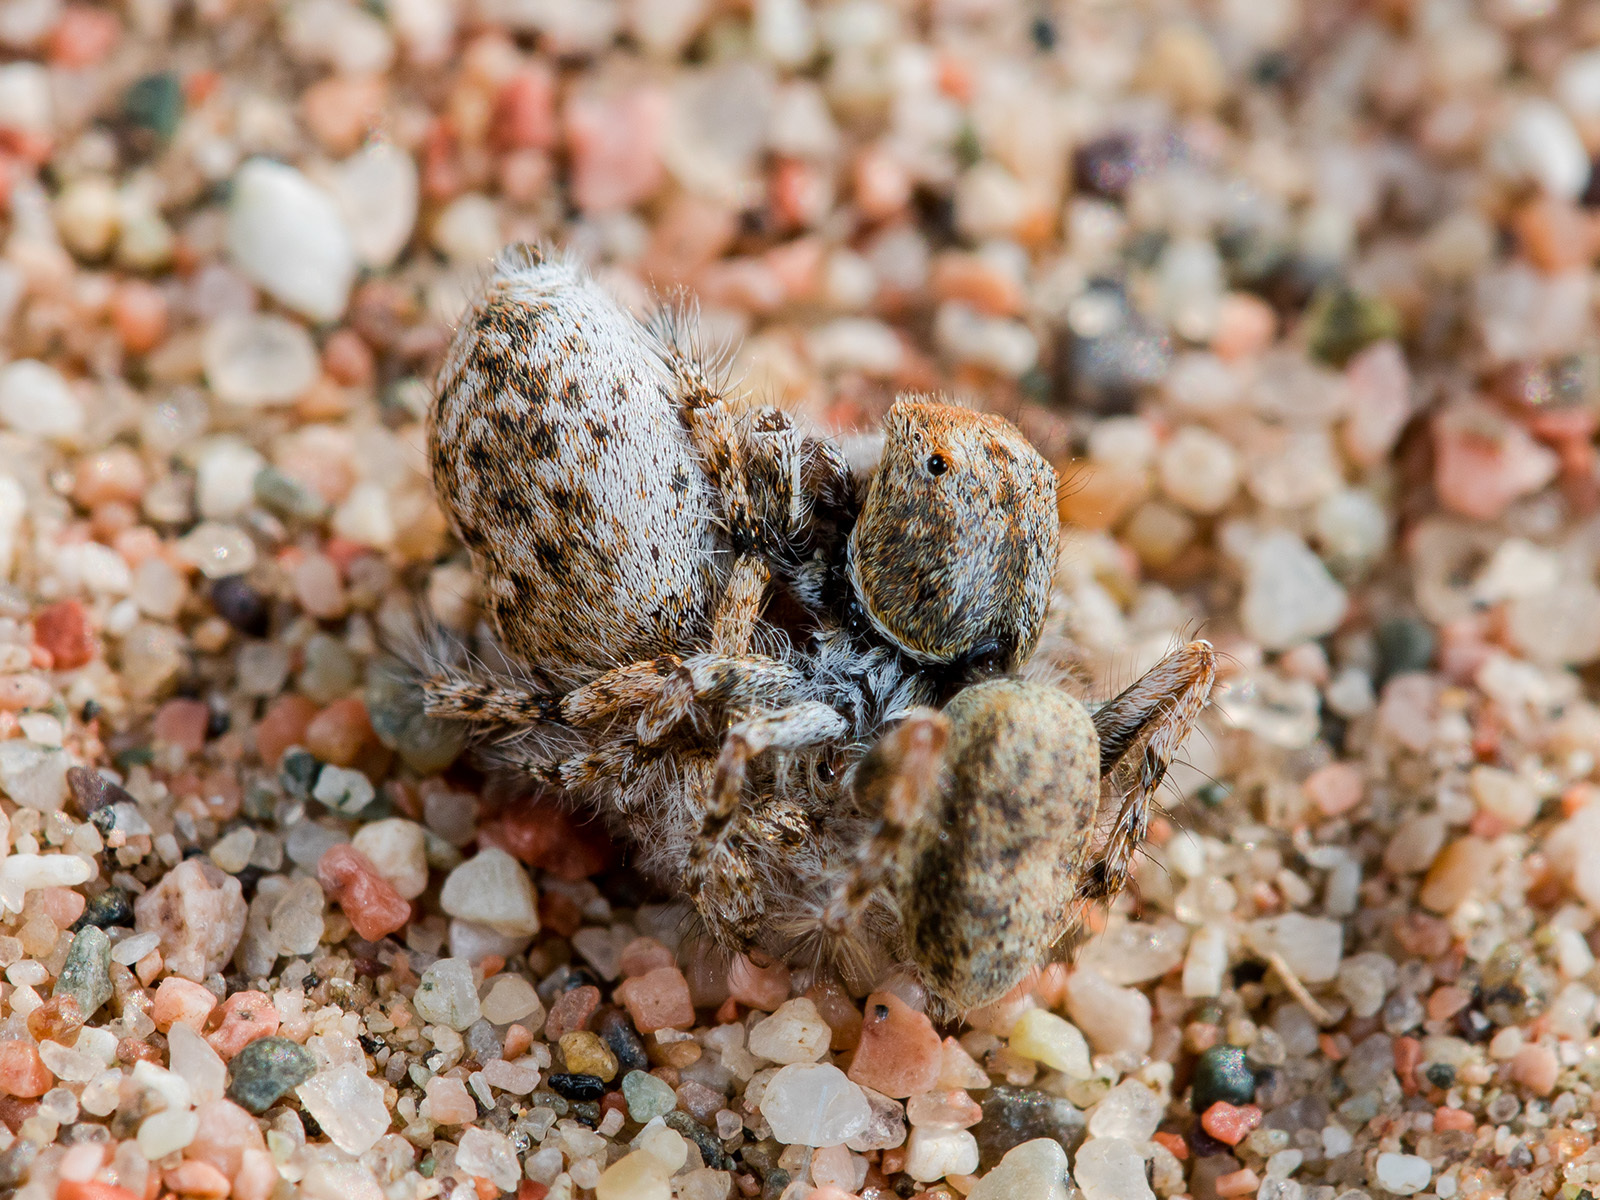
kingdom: Animalia
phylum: Arthropoda
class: Arachnida
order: Araneae
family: Salticidae
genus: Yllenus
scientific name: Yllenus uiguricus
